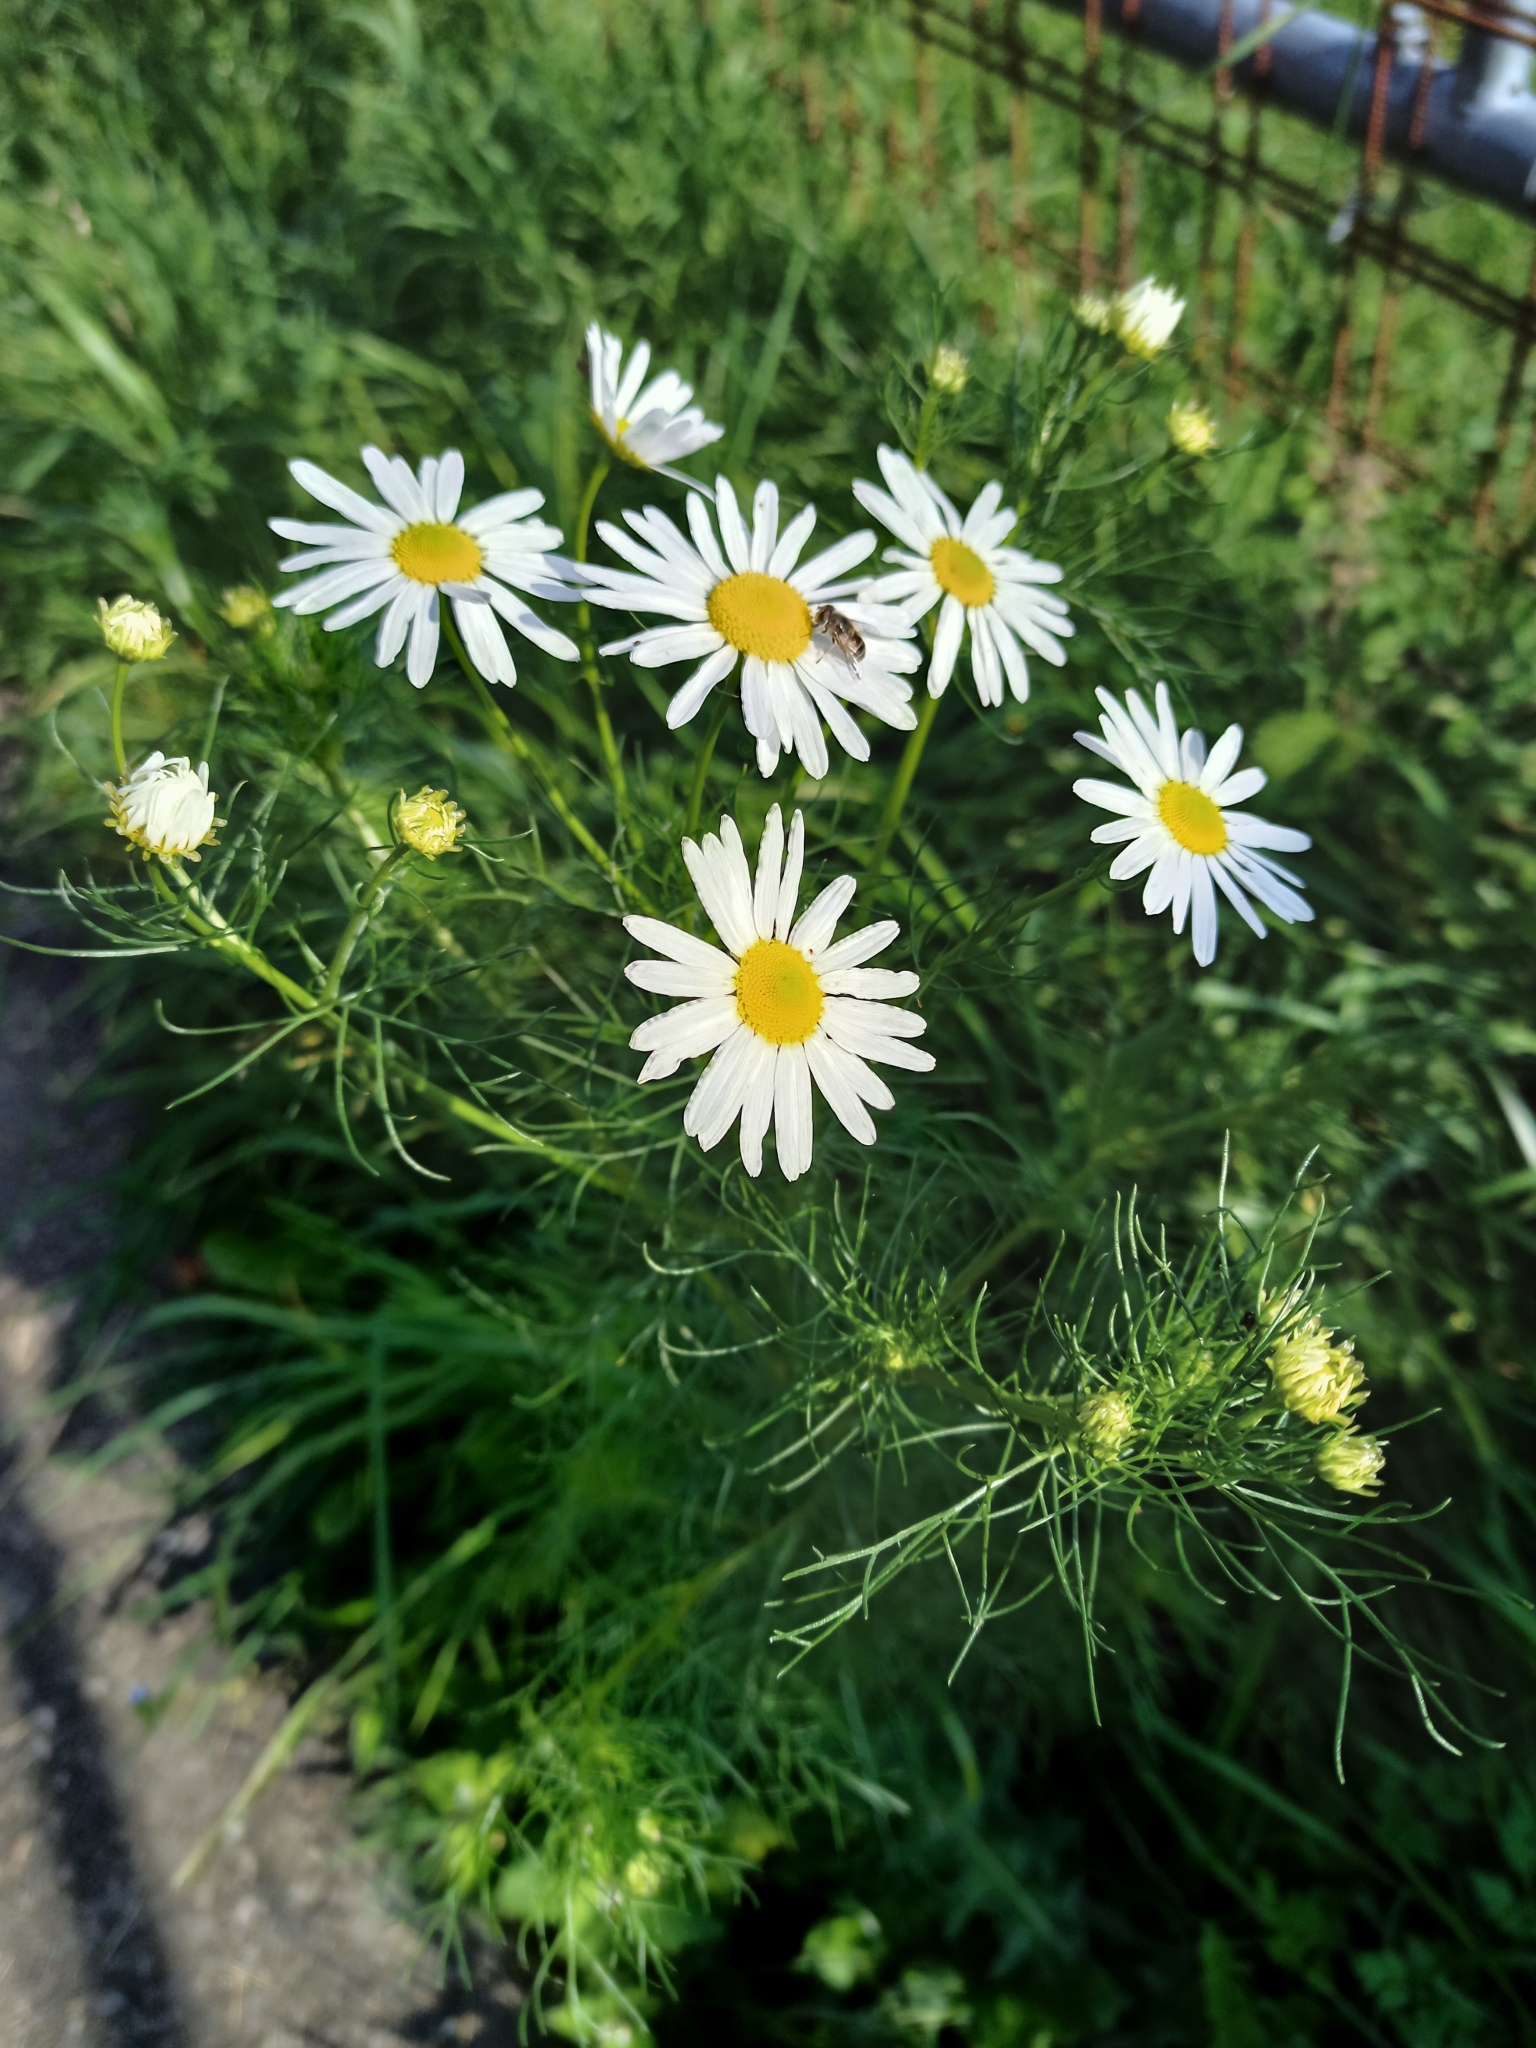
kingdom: Plantae
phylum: Tracheophyta
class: Magnoliopsida
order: Asterales
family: Asteraceae
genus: Tripleurospermum
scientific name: Tripleurospermum inodorum
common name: Scentless mayweed
